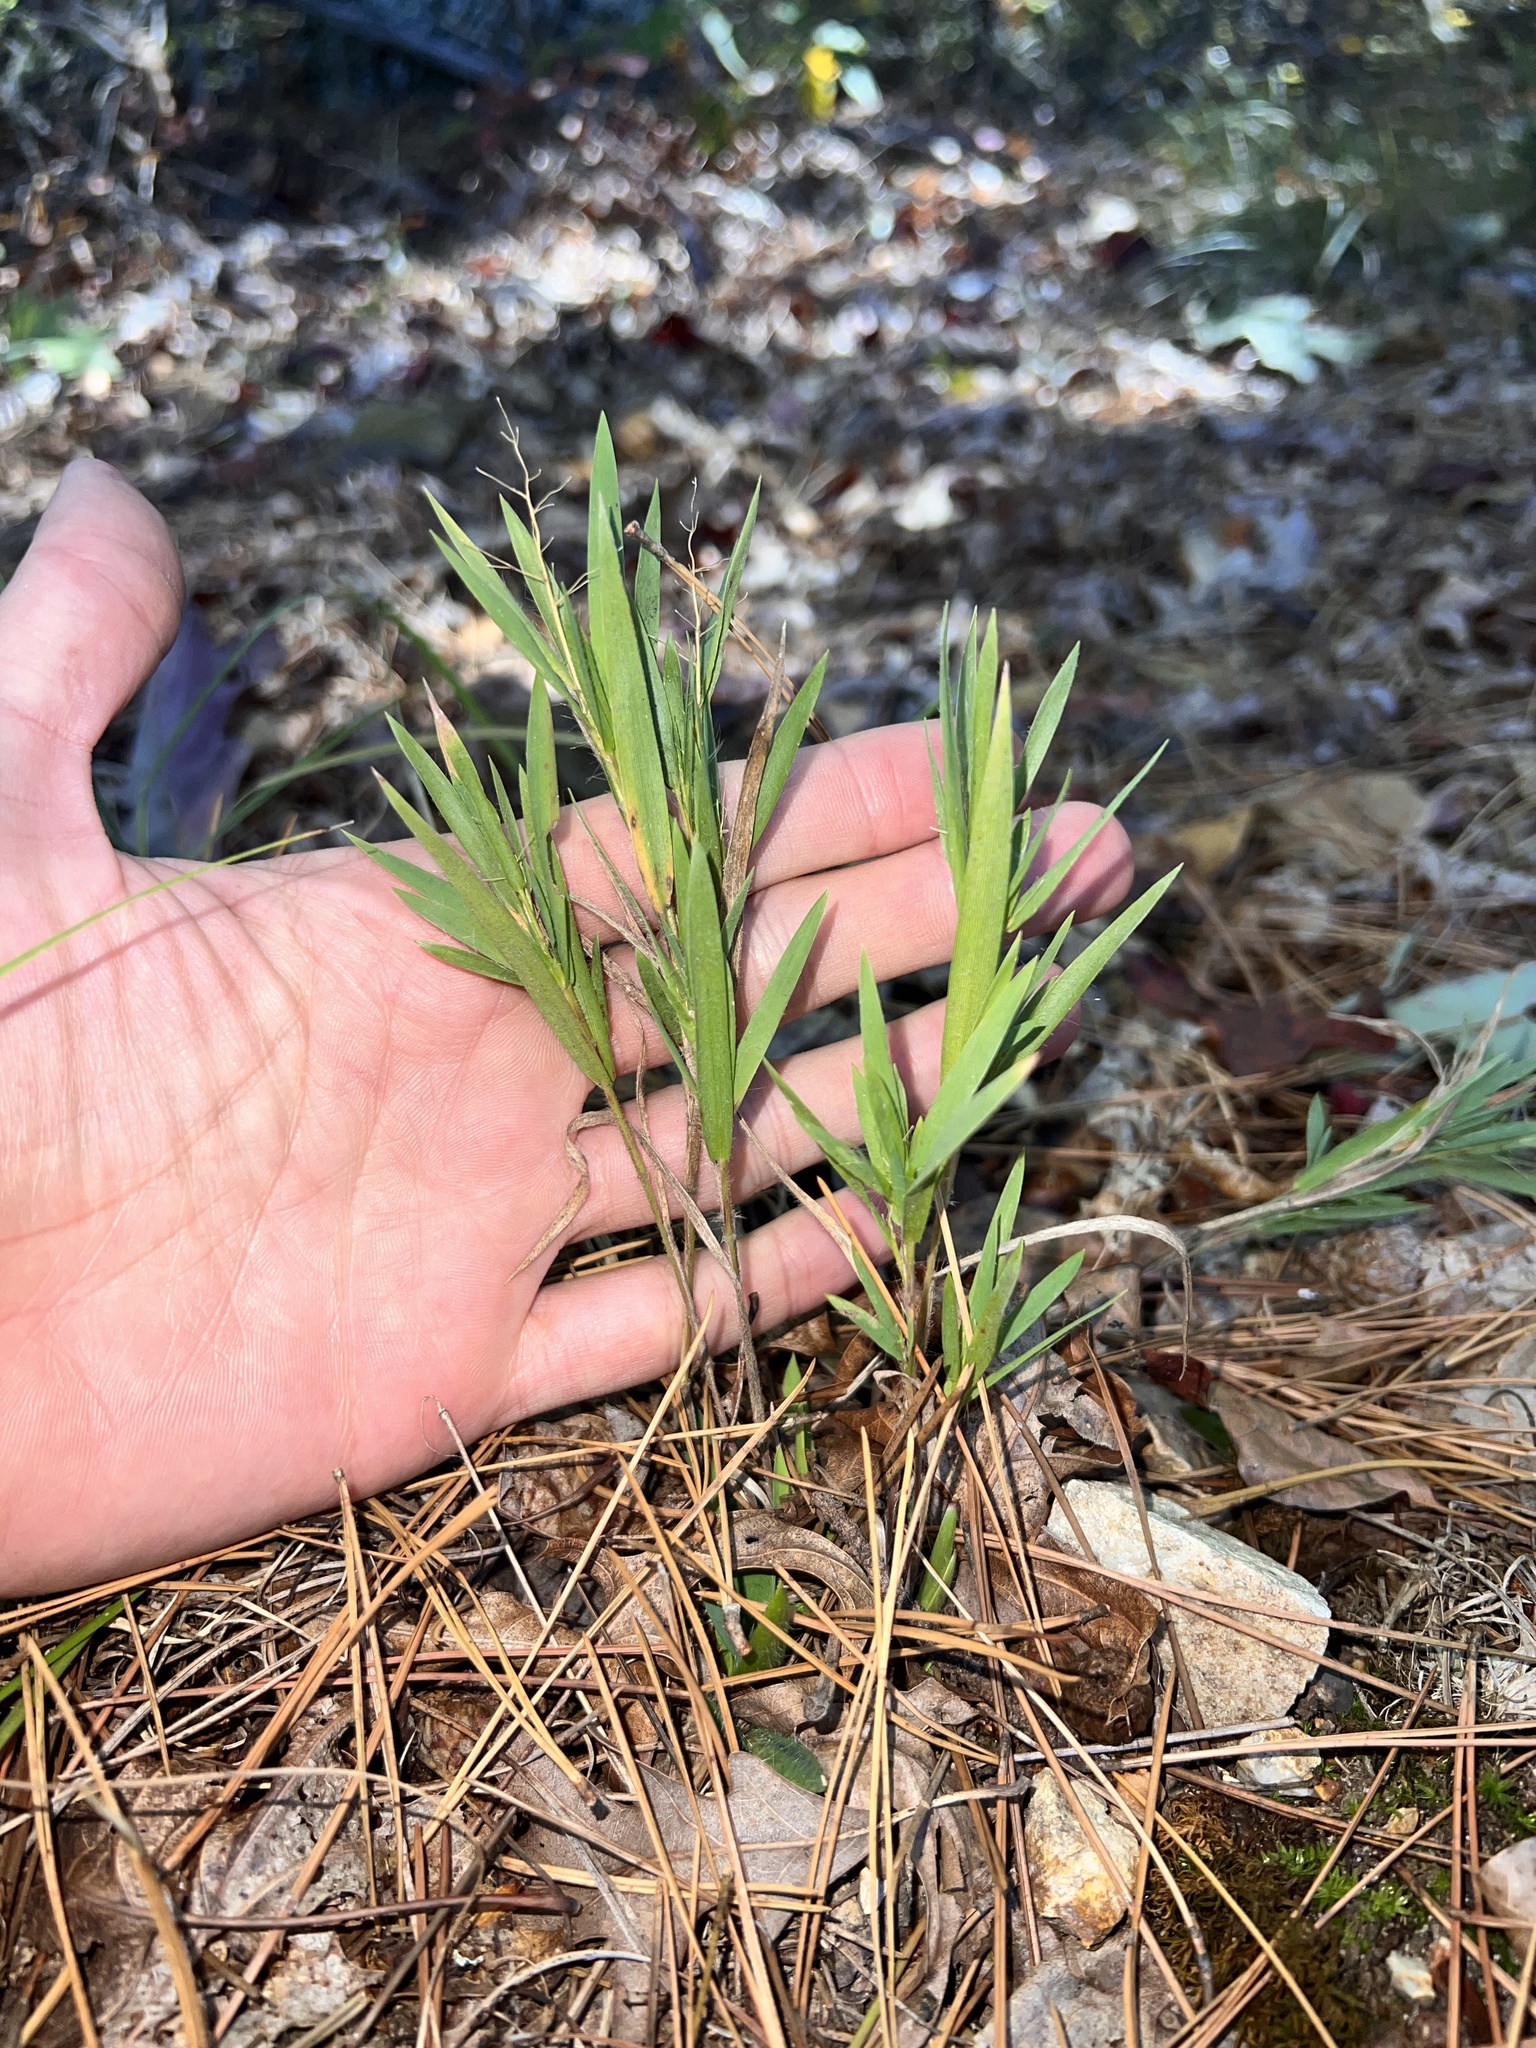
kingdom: Plantae
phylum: Tracheophyta
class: Liliopsida
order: Poales
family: Poaceae
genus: Dichanthelium
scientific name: Dichanthelium implicatum
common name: Slender-stemmed panicgrass
